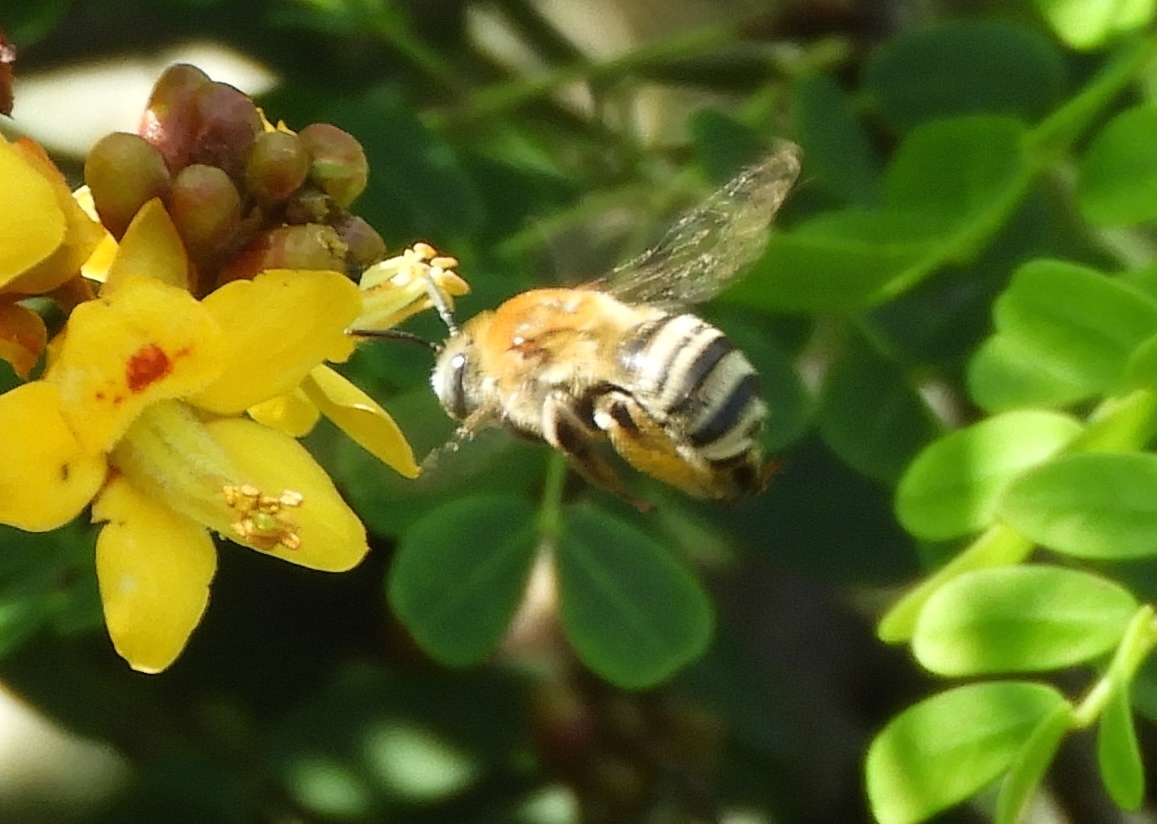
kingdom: Animalia
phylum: Arthropoda
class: Insecta
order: Hymenoptera
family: Apidae
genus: Melissodes
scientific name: Melissodes
